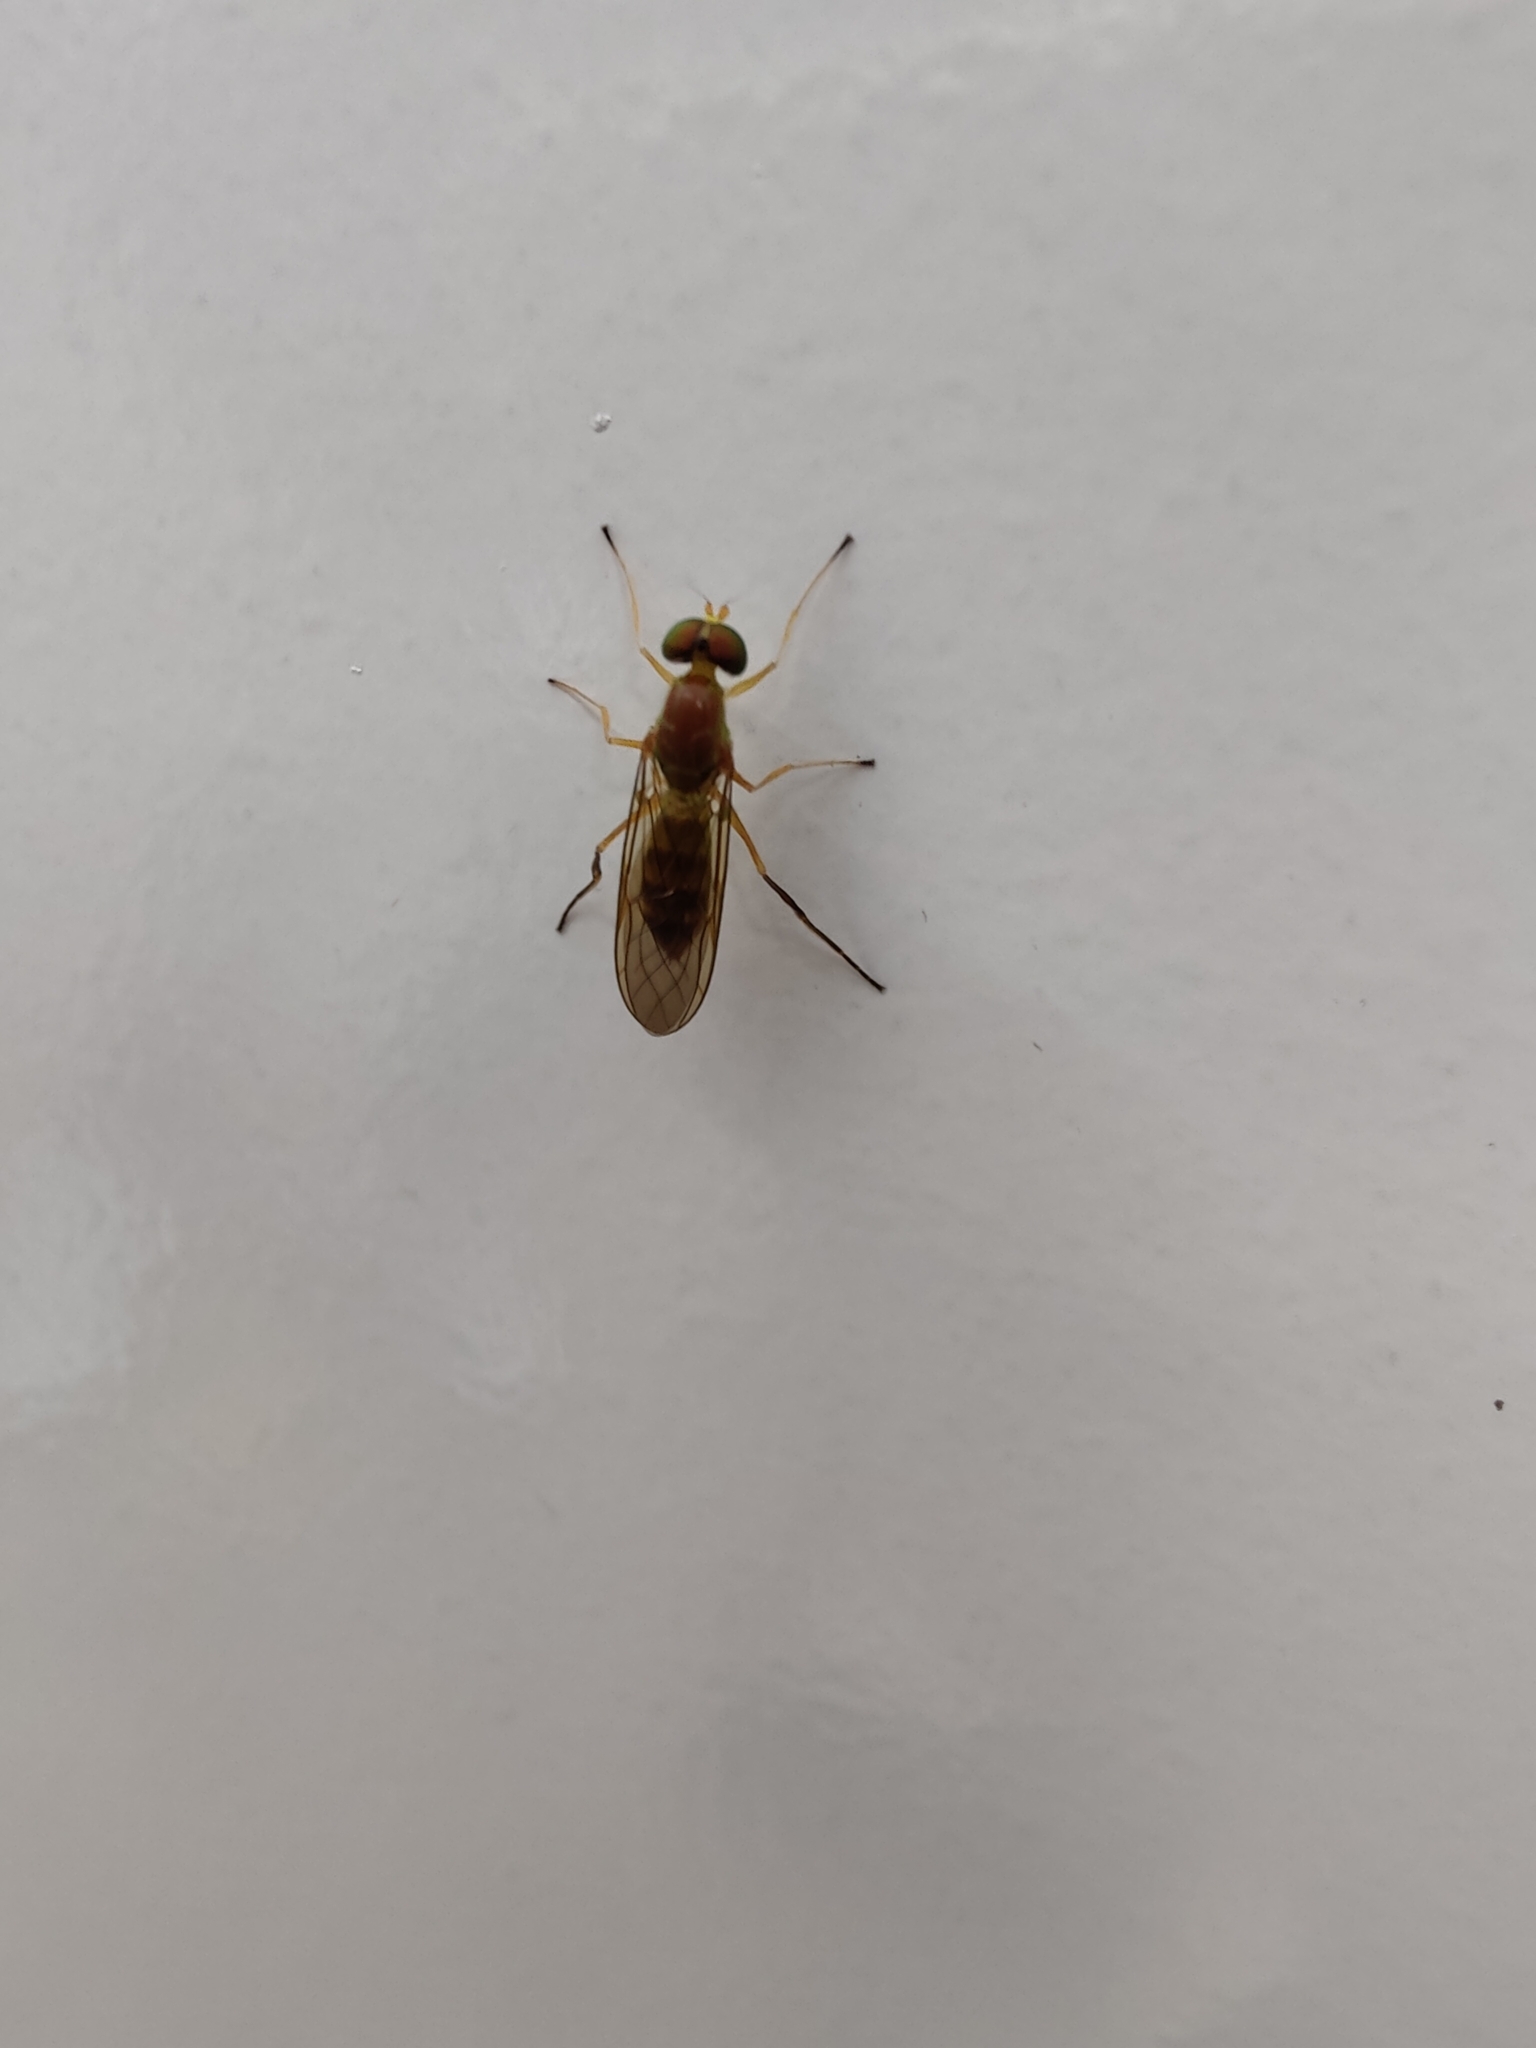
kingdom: Animalia
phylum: Arthropoda
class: Insecta
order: Diptera
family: Stratiomyidae
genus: Ptecticus
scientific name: Ptecticus trivittatus
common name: Compost fly
